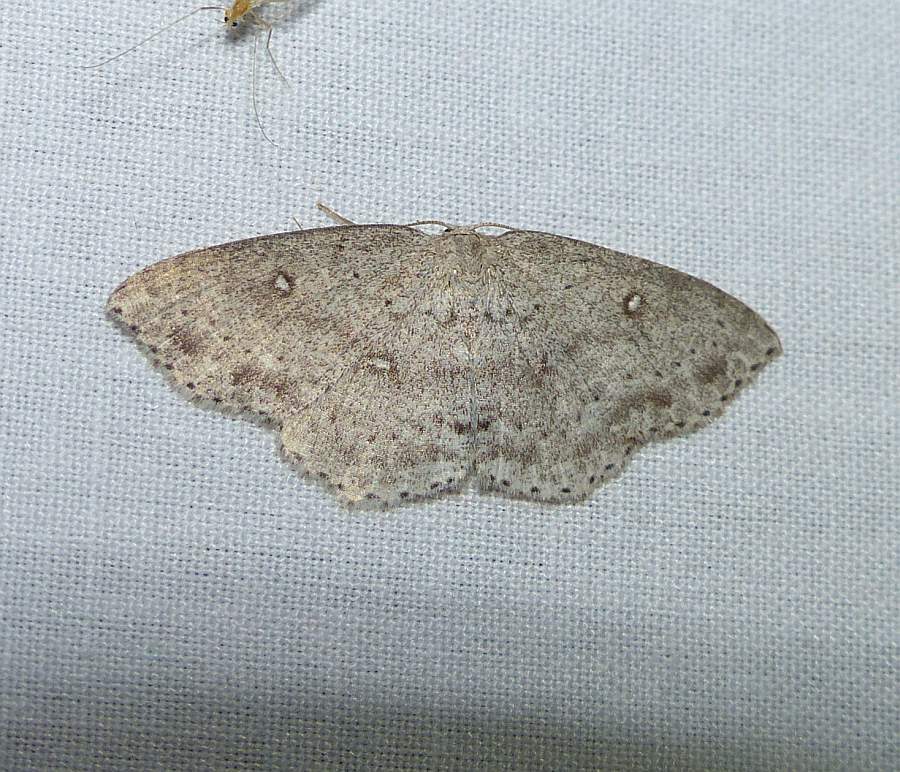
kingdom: Animalia
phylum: Arthropoda
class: Insecta
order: Lepidoptera
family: Geometridae
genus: Cyclophora
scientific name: Cyclophora pendulinaria
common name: Sweet fern geometer
